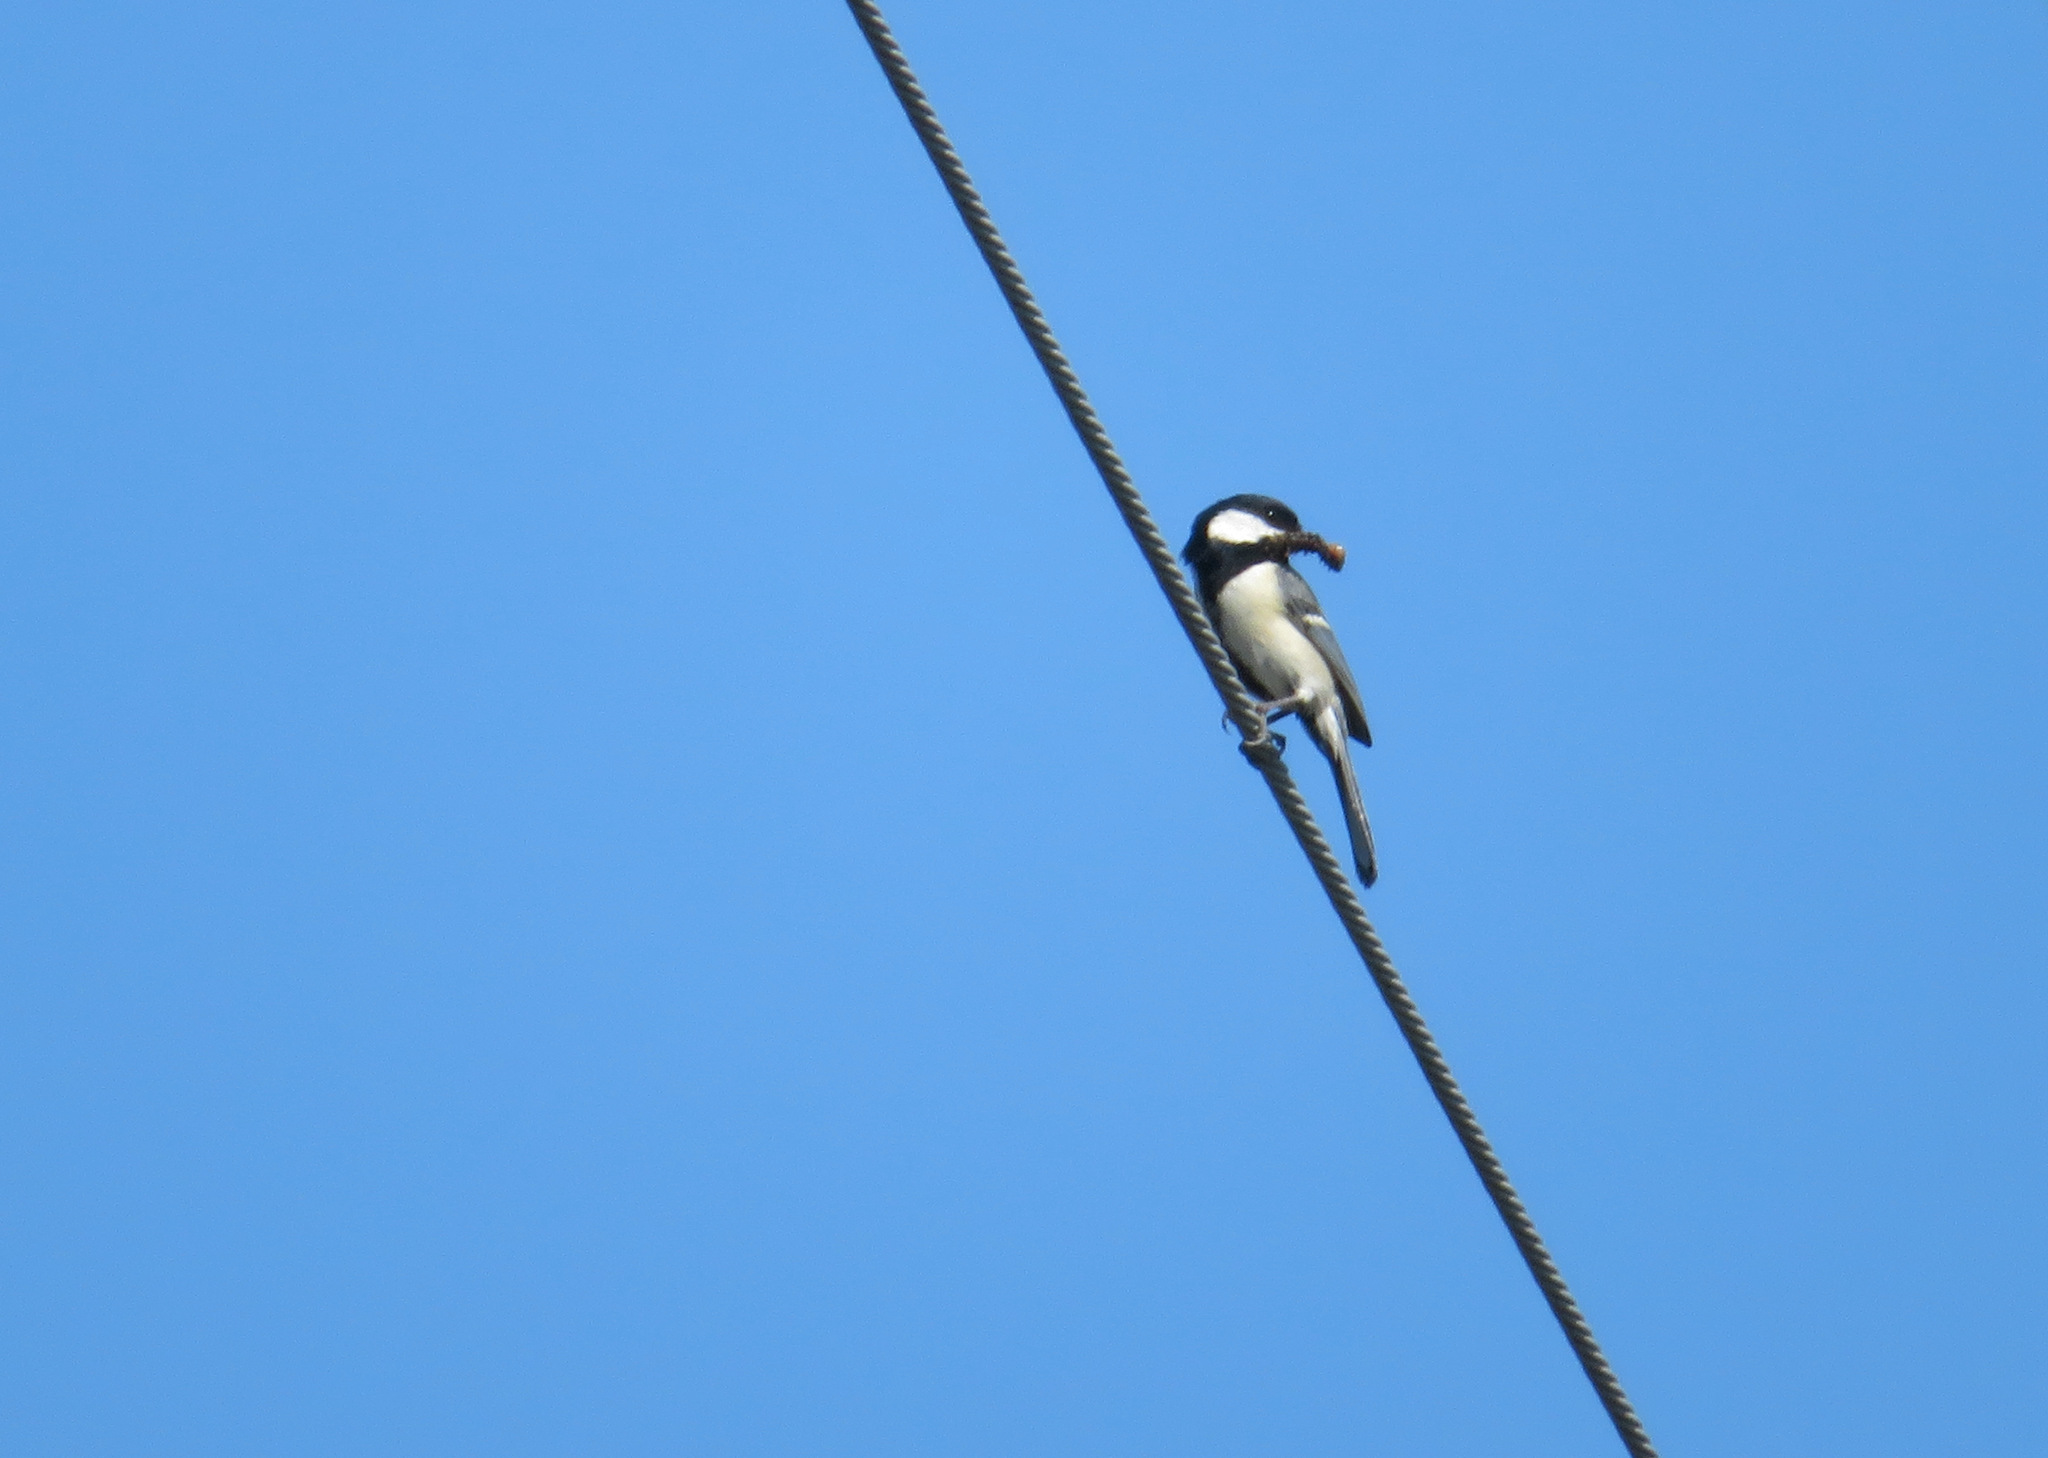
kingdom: Animalia
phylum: Chordata
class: Aves
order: Passeriformes
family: Paridae
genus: Parus
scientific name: Parus minor
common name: Japanese tit
